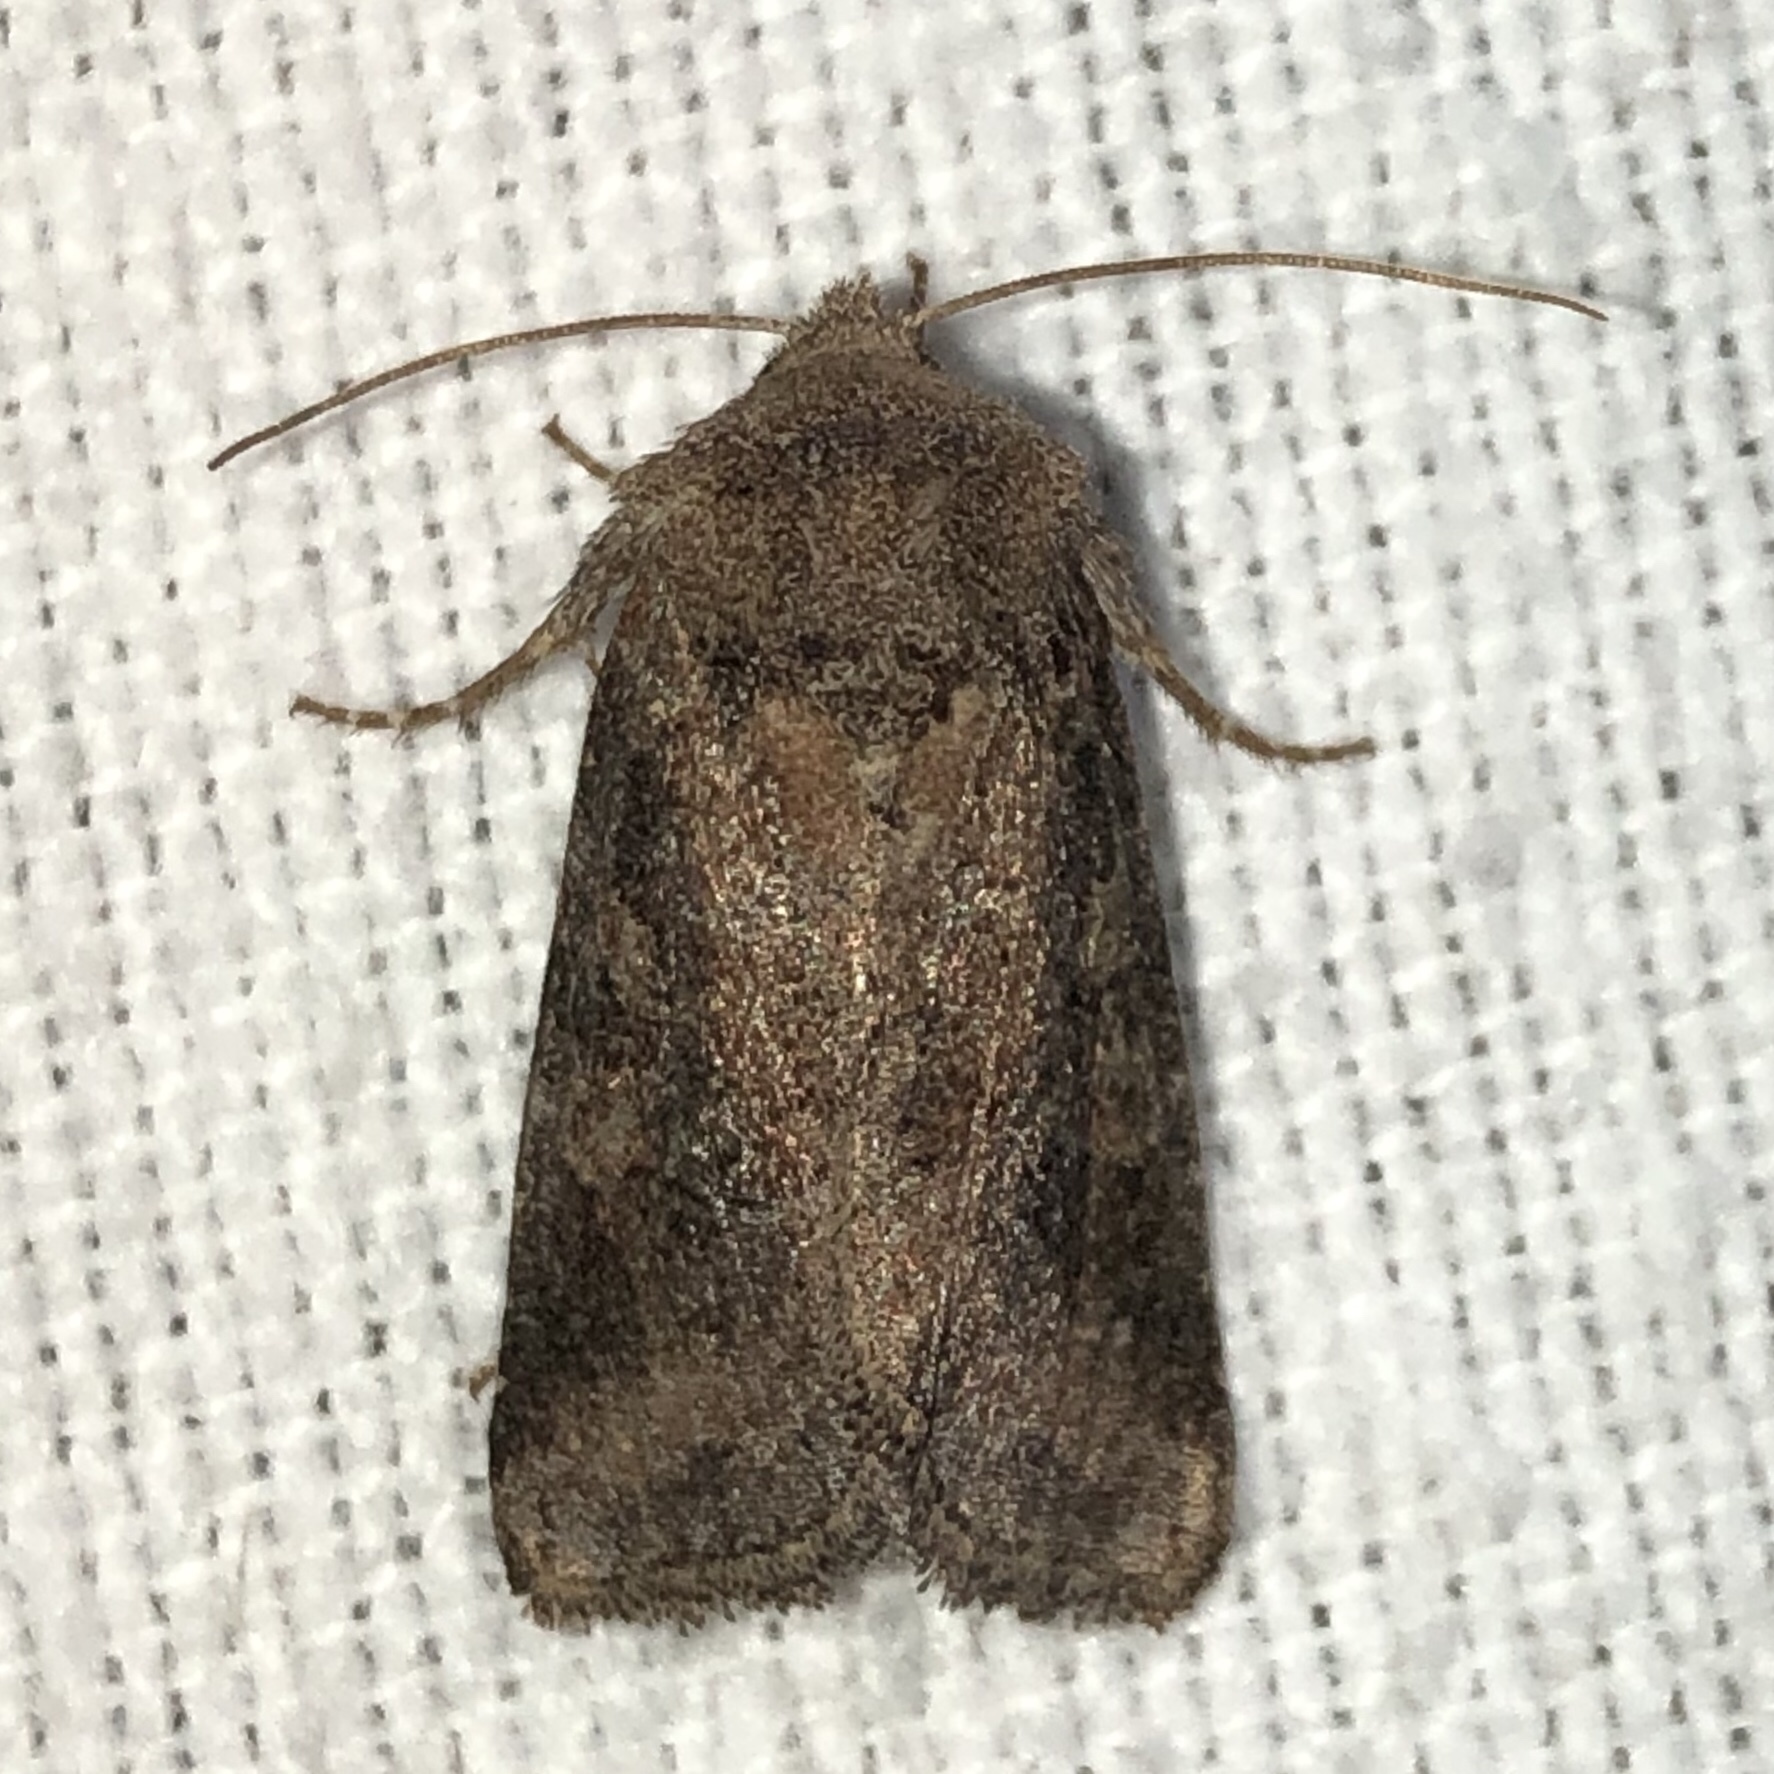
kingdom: Animalia
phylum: Arthropoda
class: Insecta
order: Lepidoptera
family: Noctuidae
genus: Nephelodes
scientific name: Nephelodes minians
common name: Bronzed cutworm
